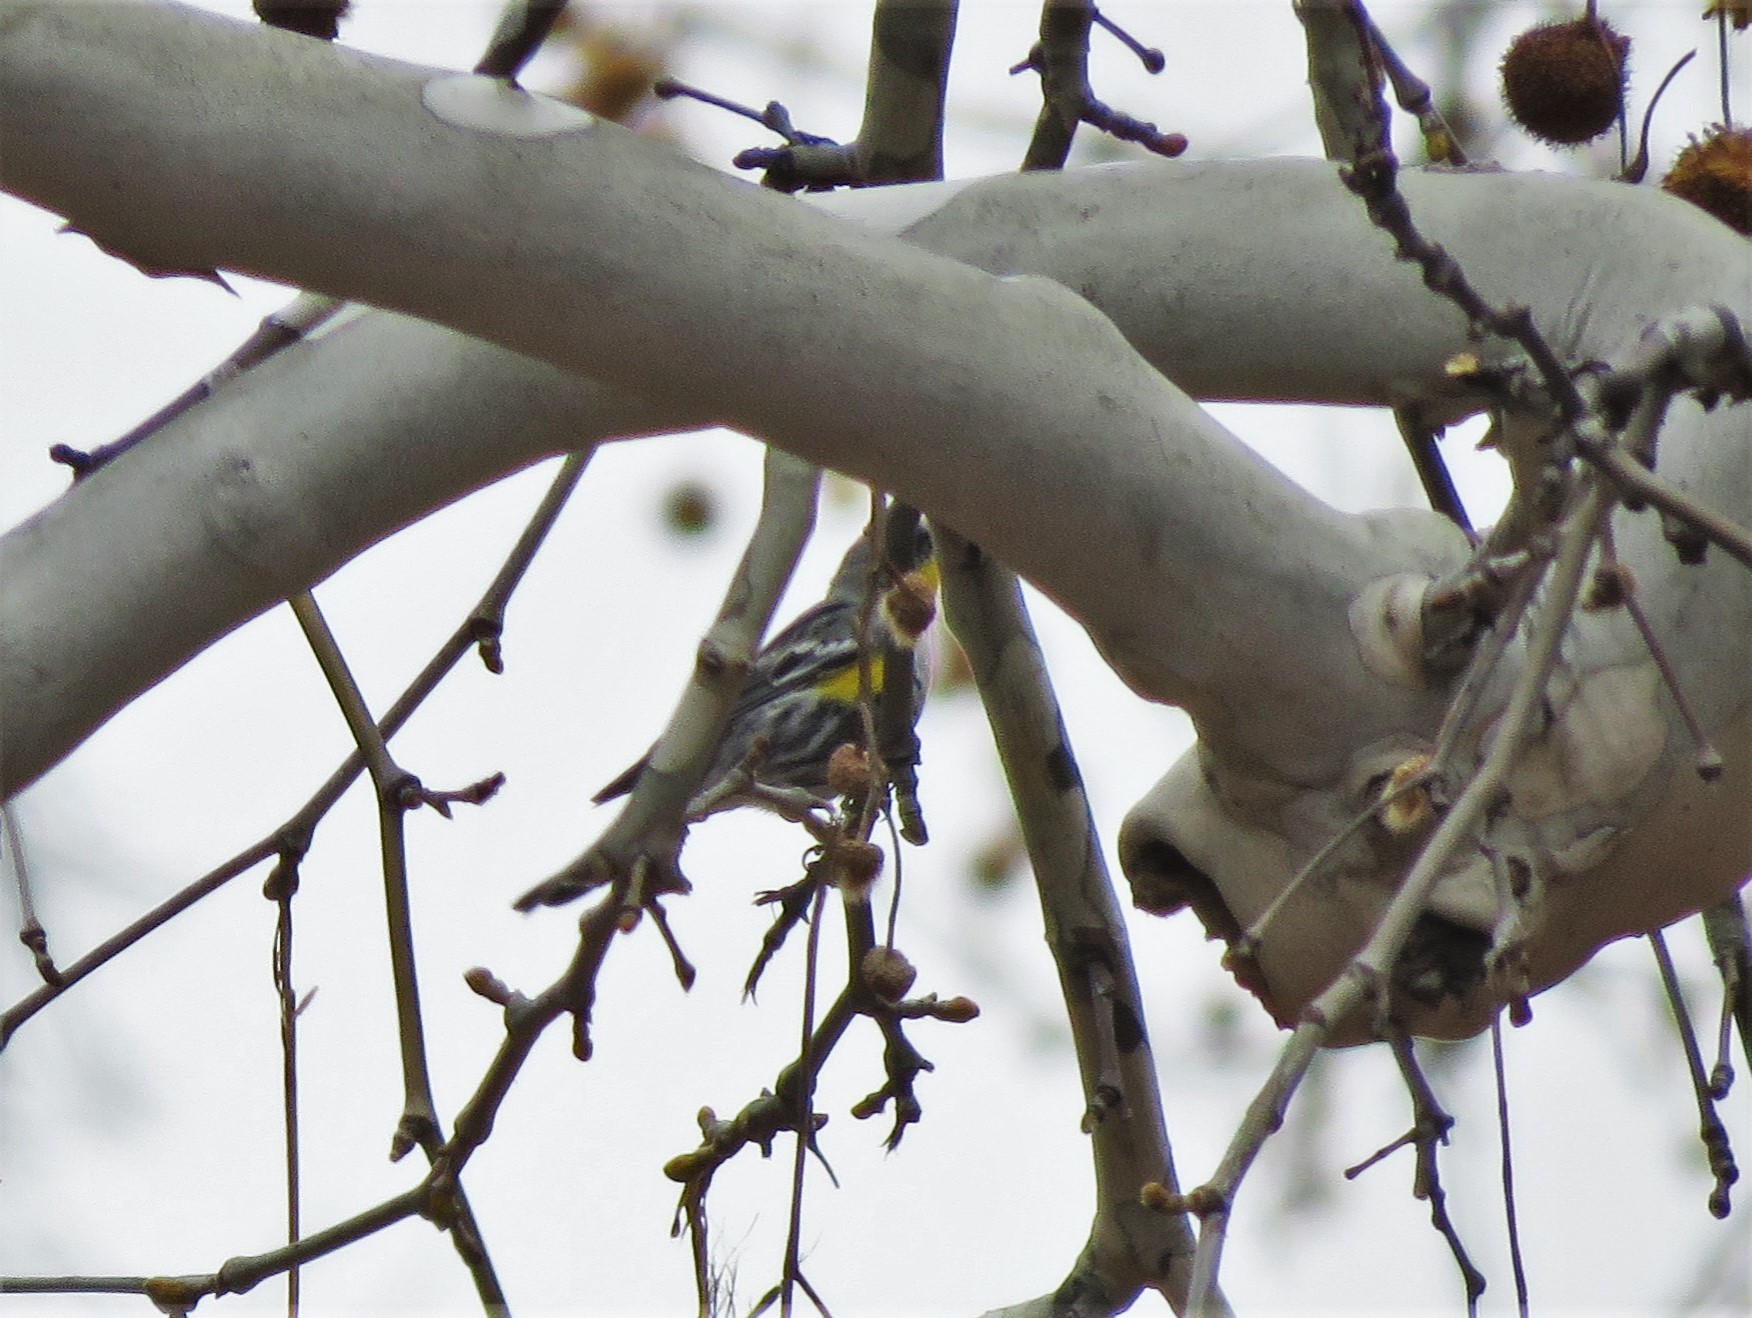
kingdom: Animalia
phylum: Chordata
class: Aves
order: Passeriformes
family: Parulidae
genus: Setophaga
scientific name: Setophaga coronata
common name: Myrtle warbler
